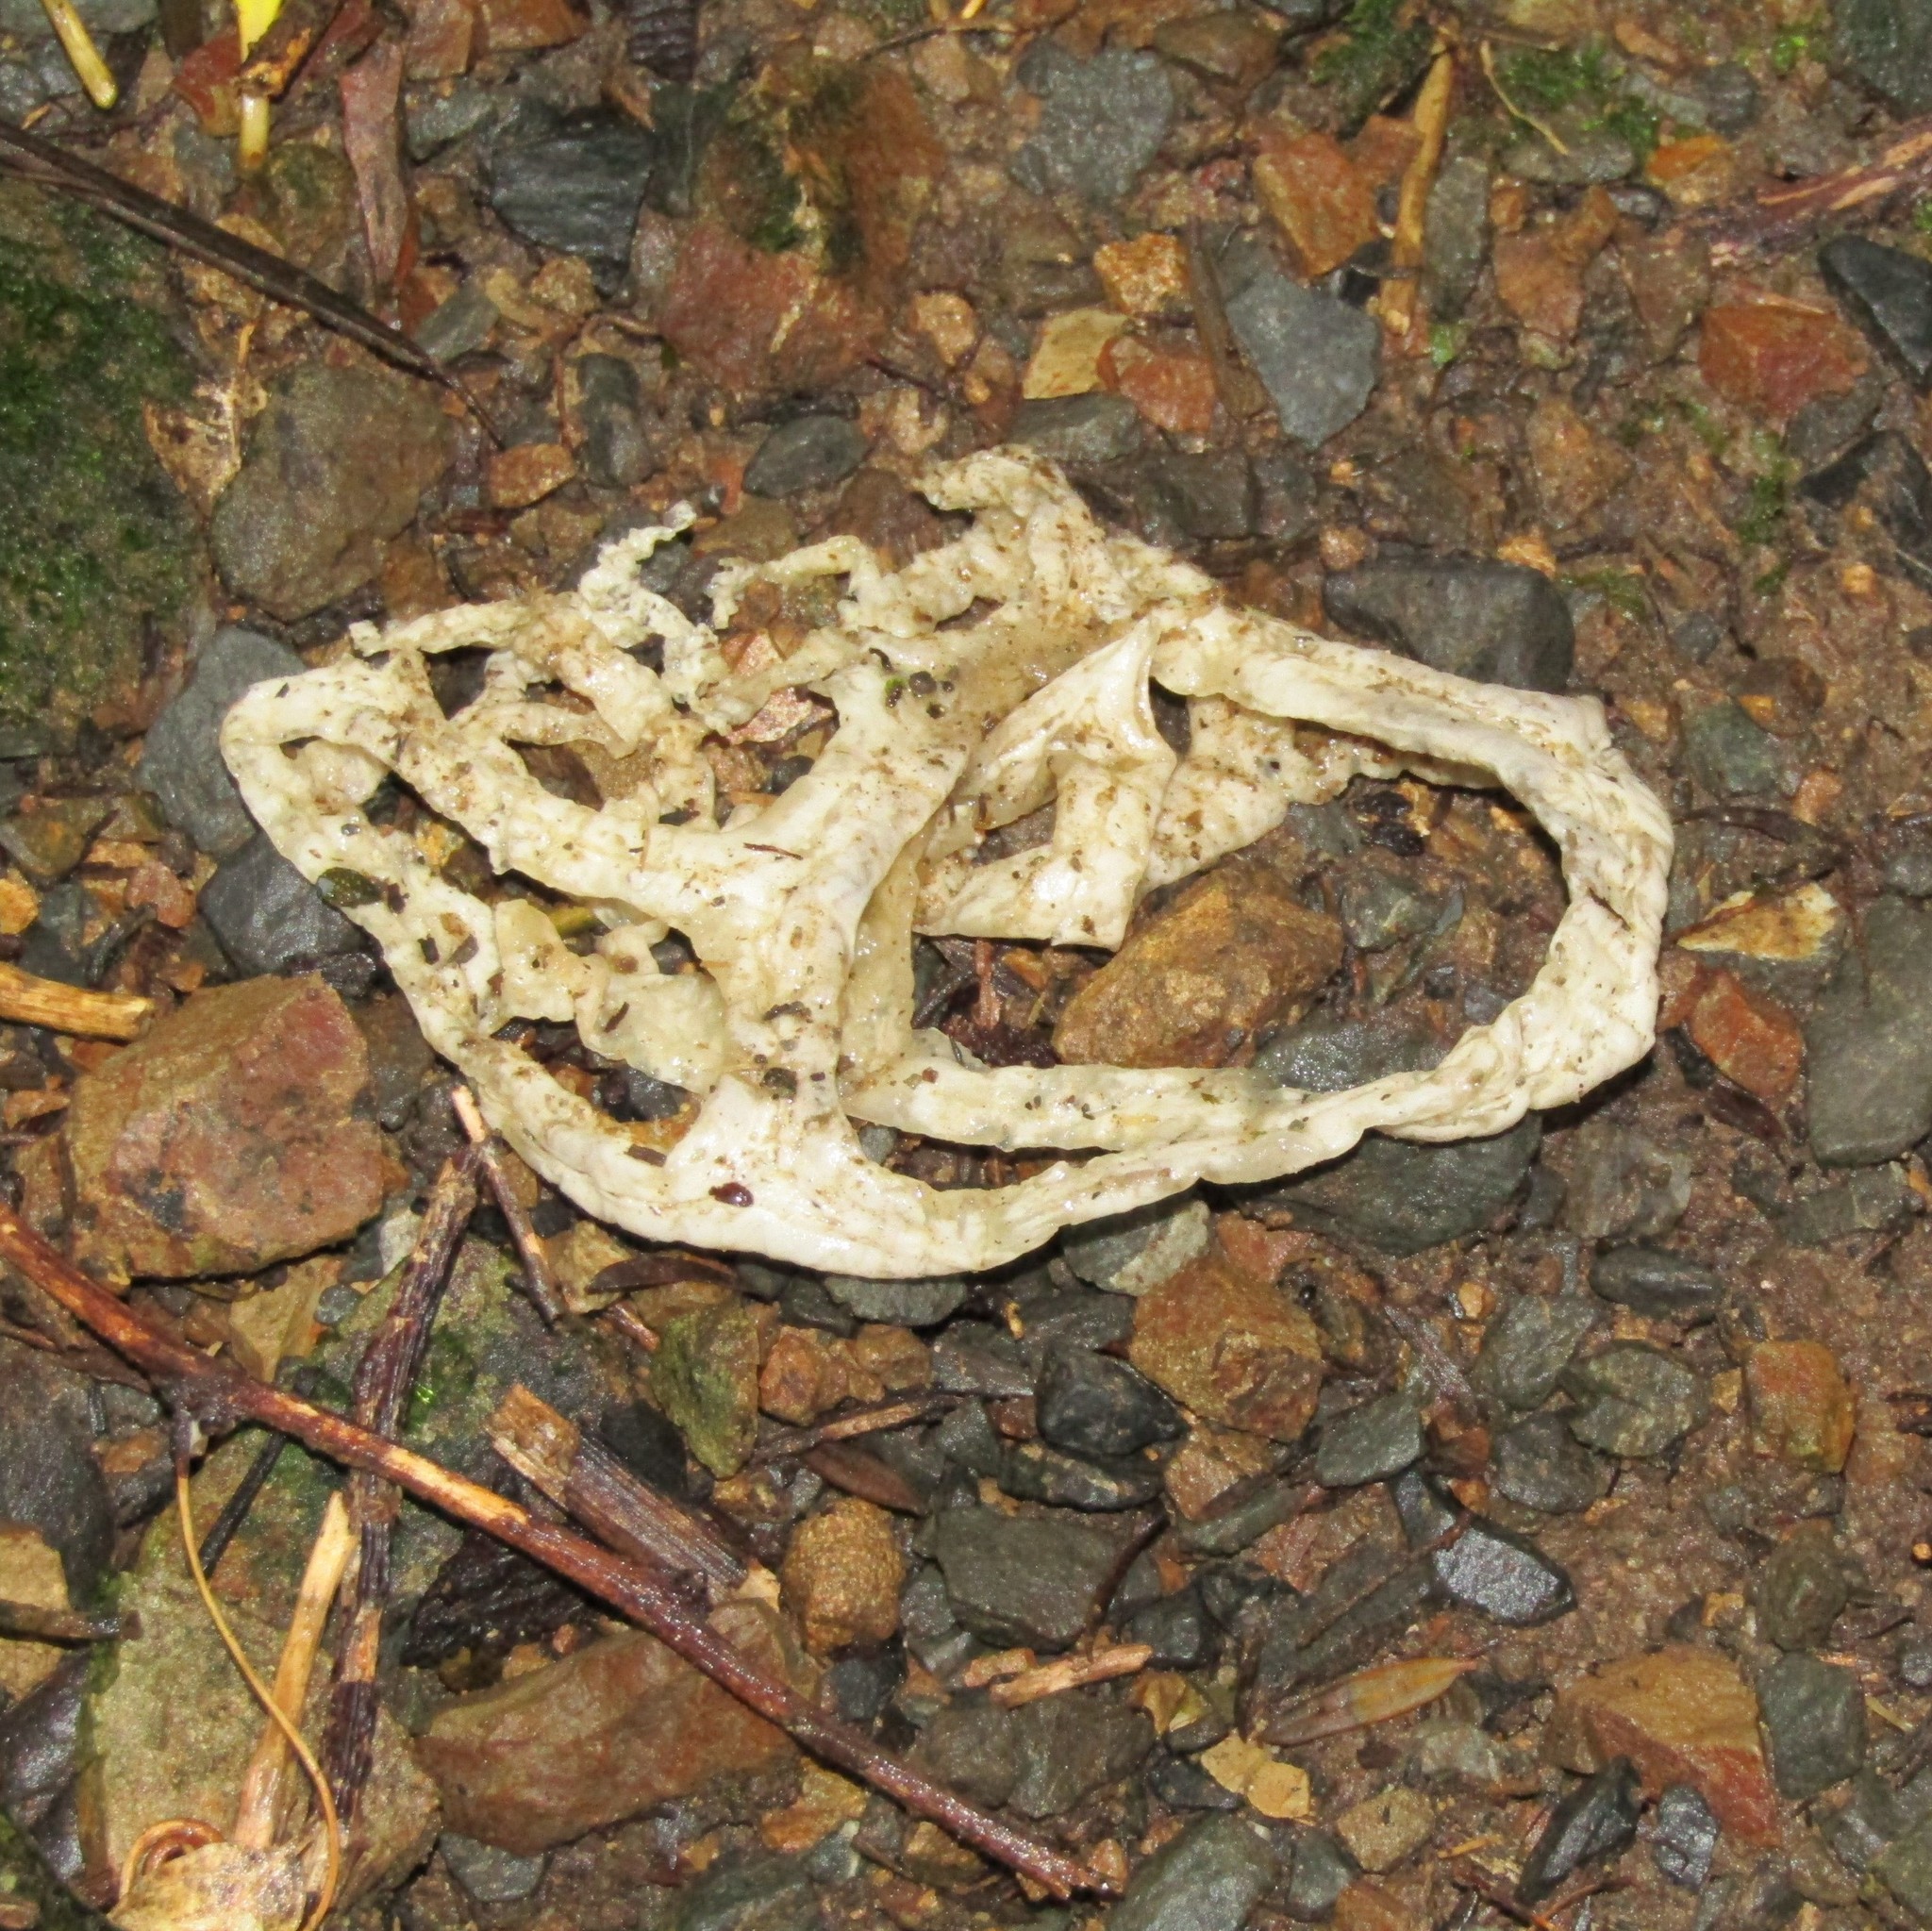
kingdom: Fungi
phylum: Basidiomycota
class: Agaricomycetes
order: Phallales
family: Phallaceae
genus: Ileodictyon
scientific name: Ileodictyon cibarium
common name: Basket fungus
